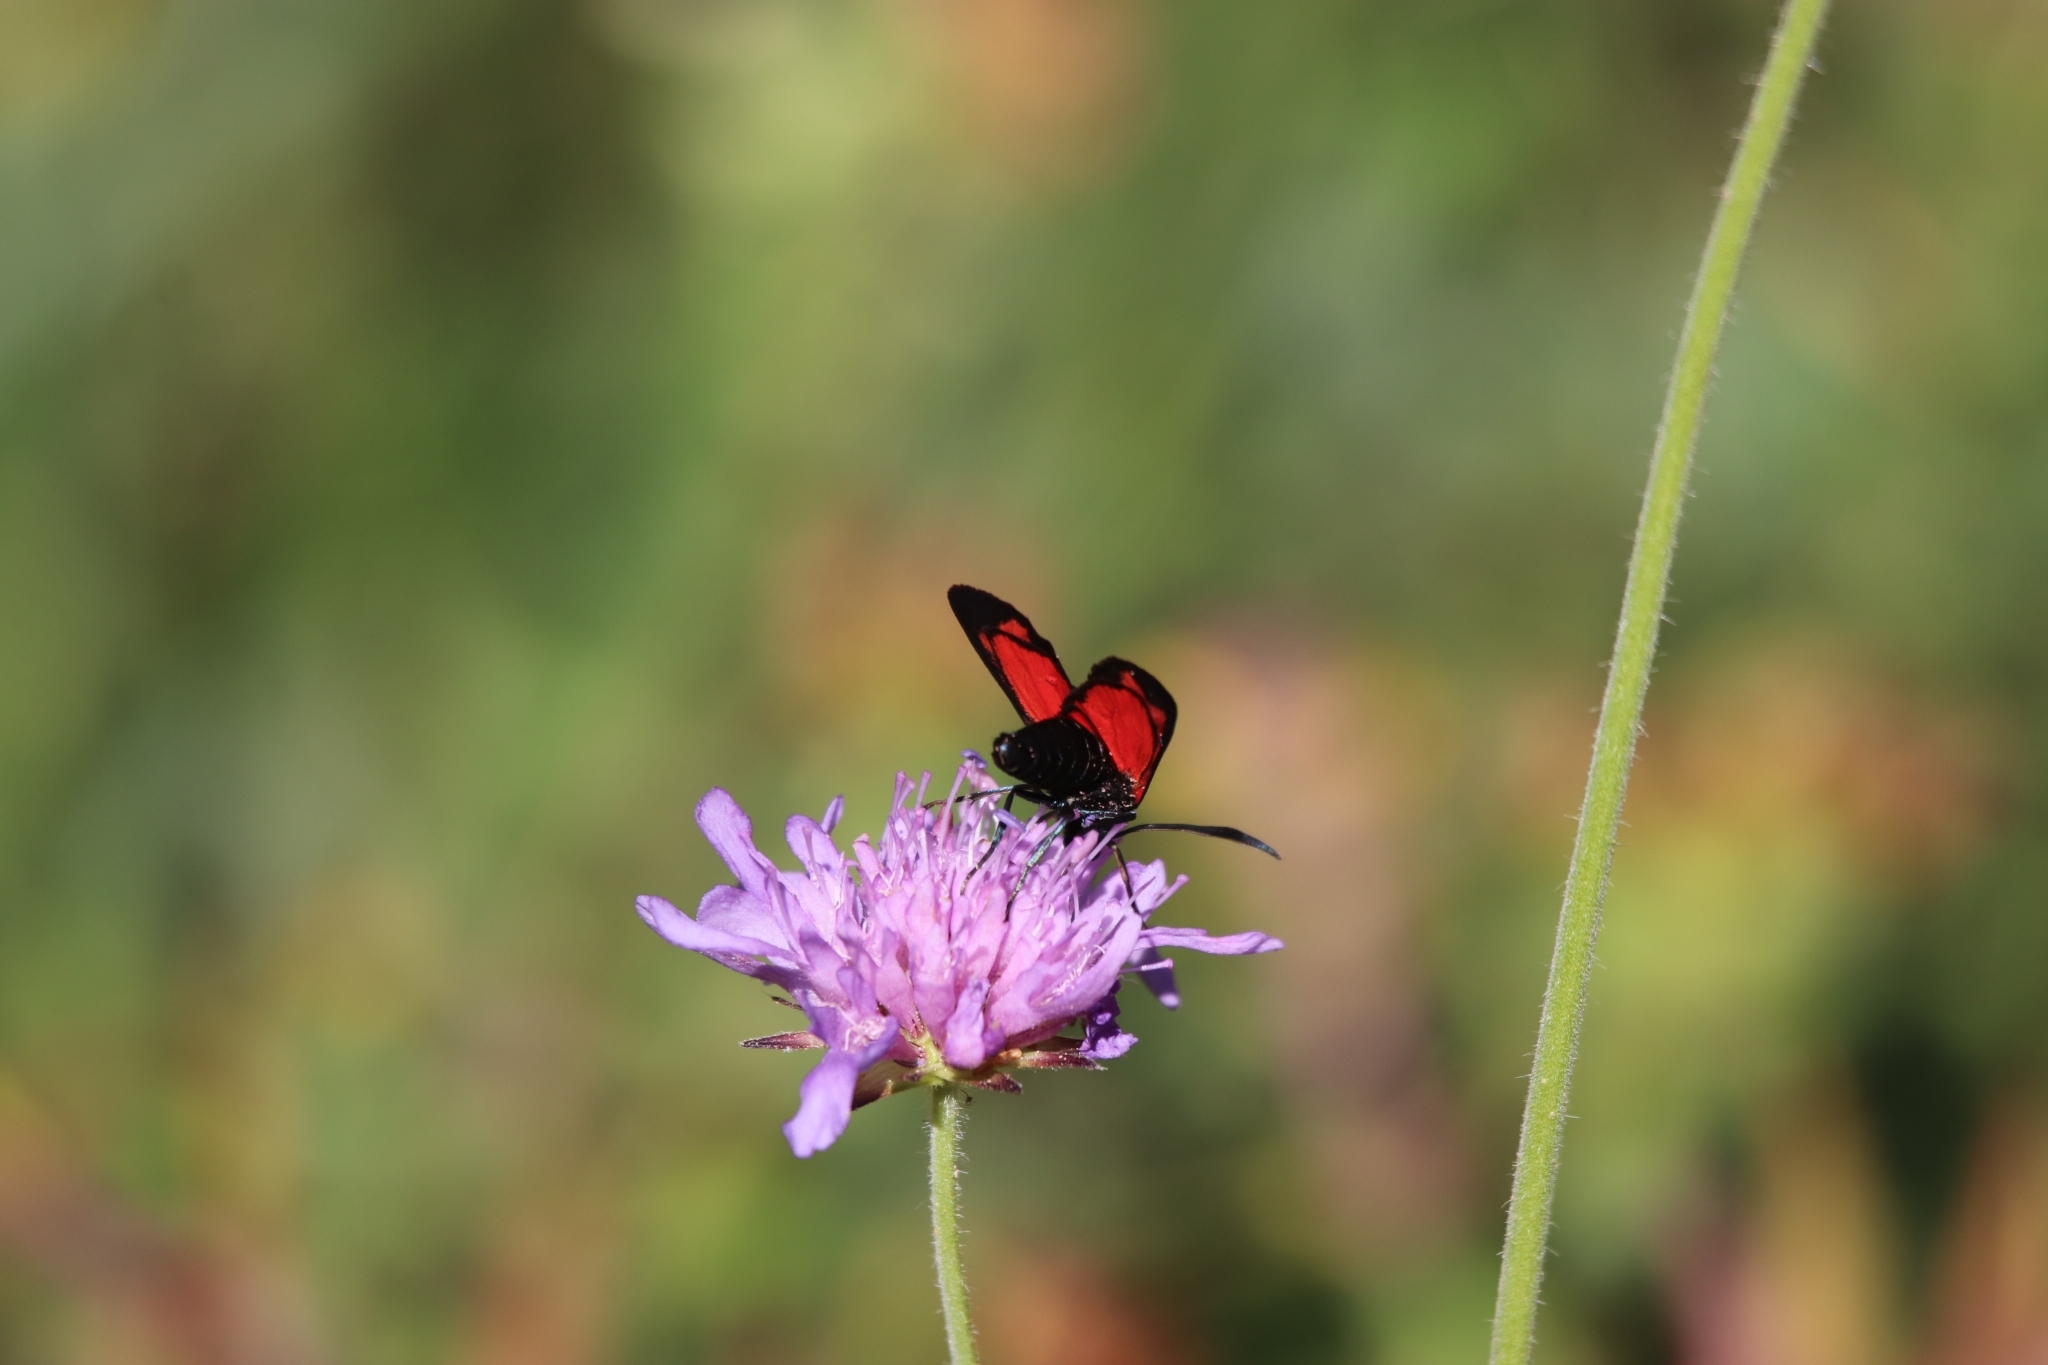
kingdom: Animalia
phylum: Arthropoda
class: Insecta
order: Lepidoptera
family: Zygaenidae
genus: Zygaena
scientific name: Zygaena transalpina
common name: Southern six spot burnet
